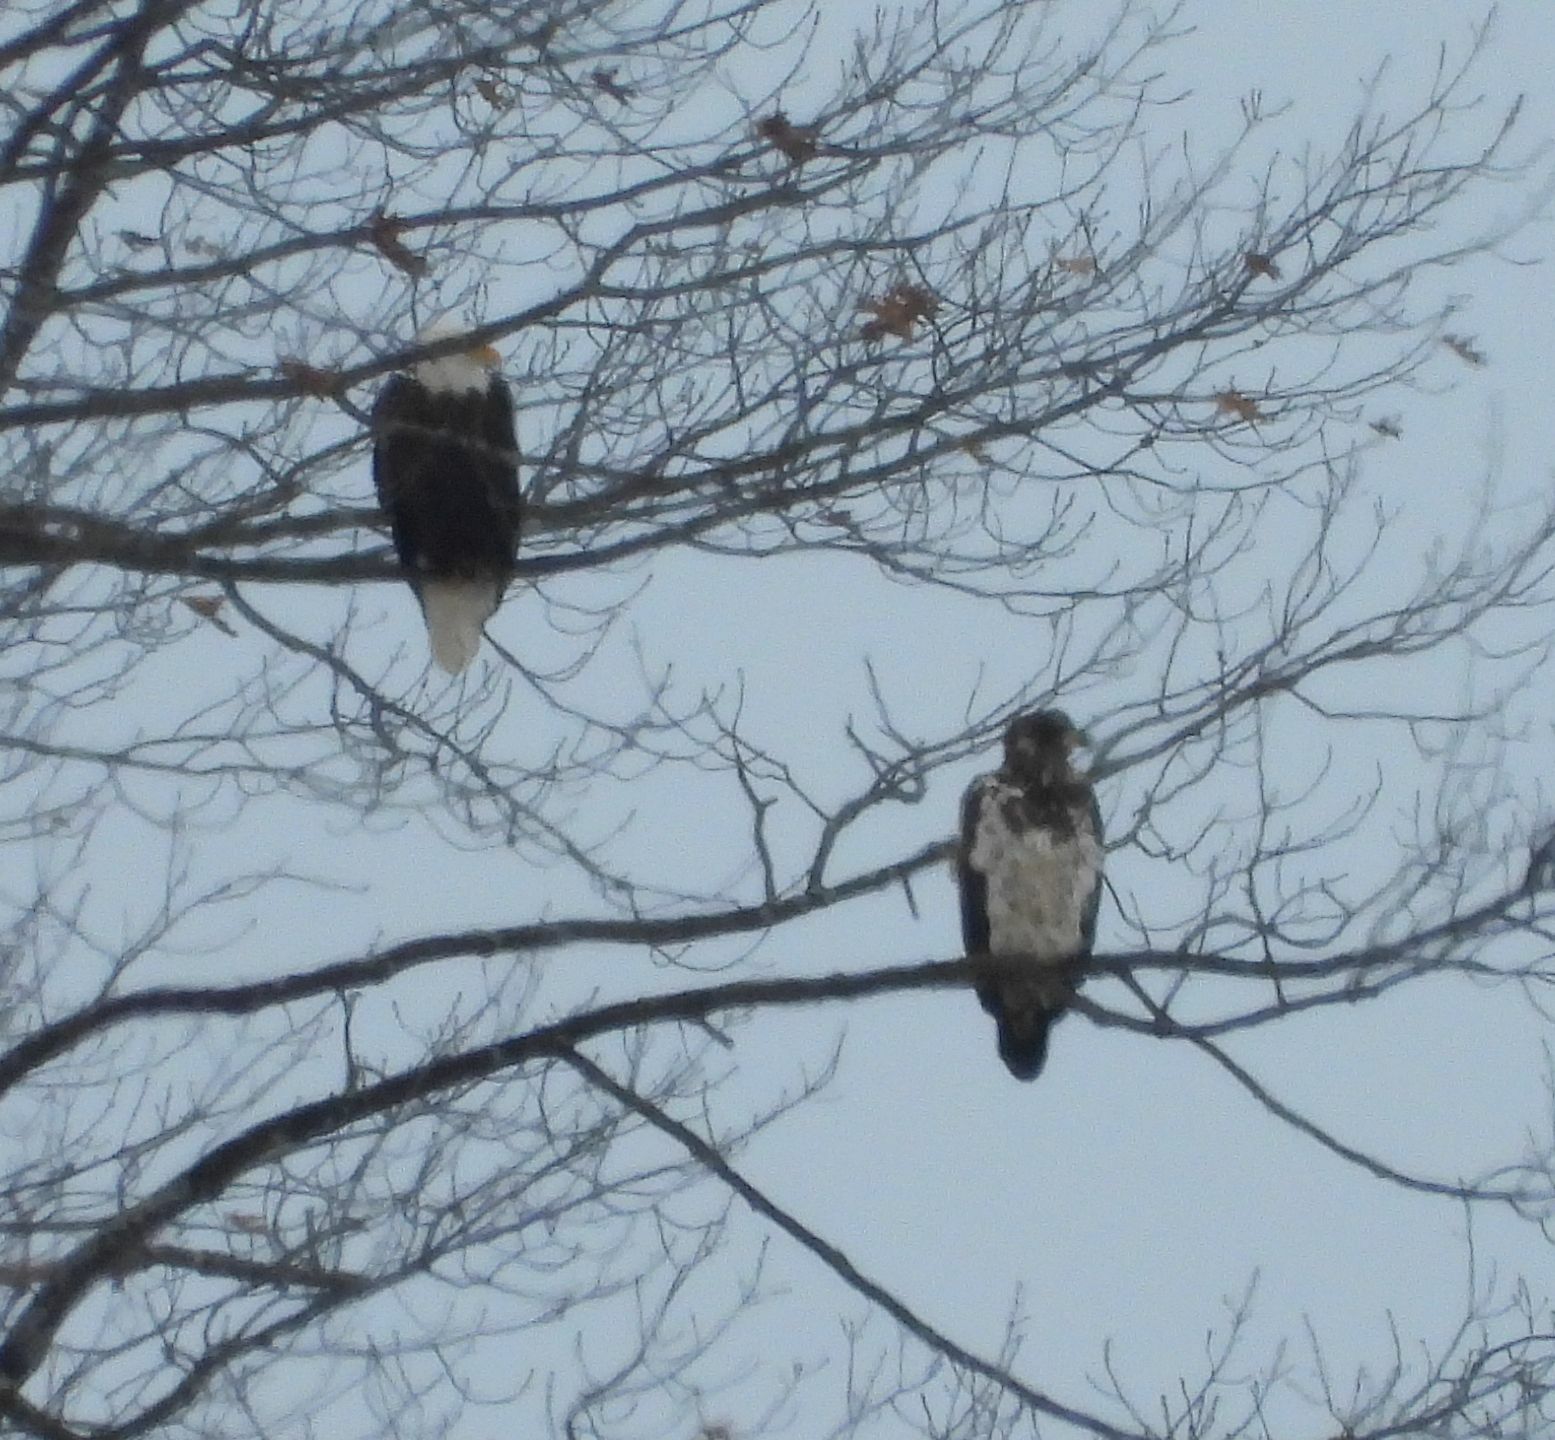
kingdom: Animalia
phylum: Chordata
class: Aves
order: Accipitriformes
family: Accipitridae
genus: Haliaeetus
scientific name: Haliaeetus leucocephalus
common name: Bald eagle
